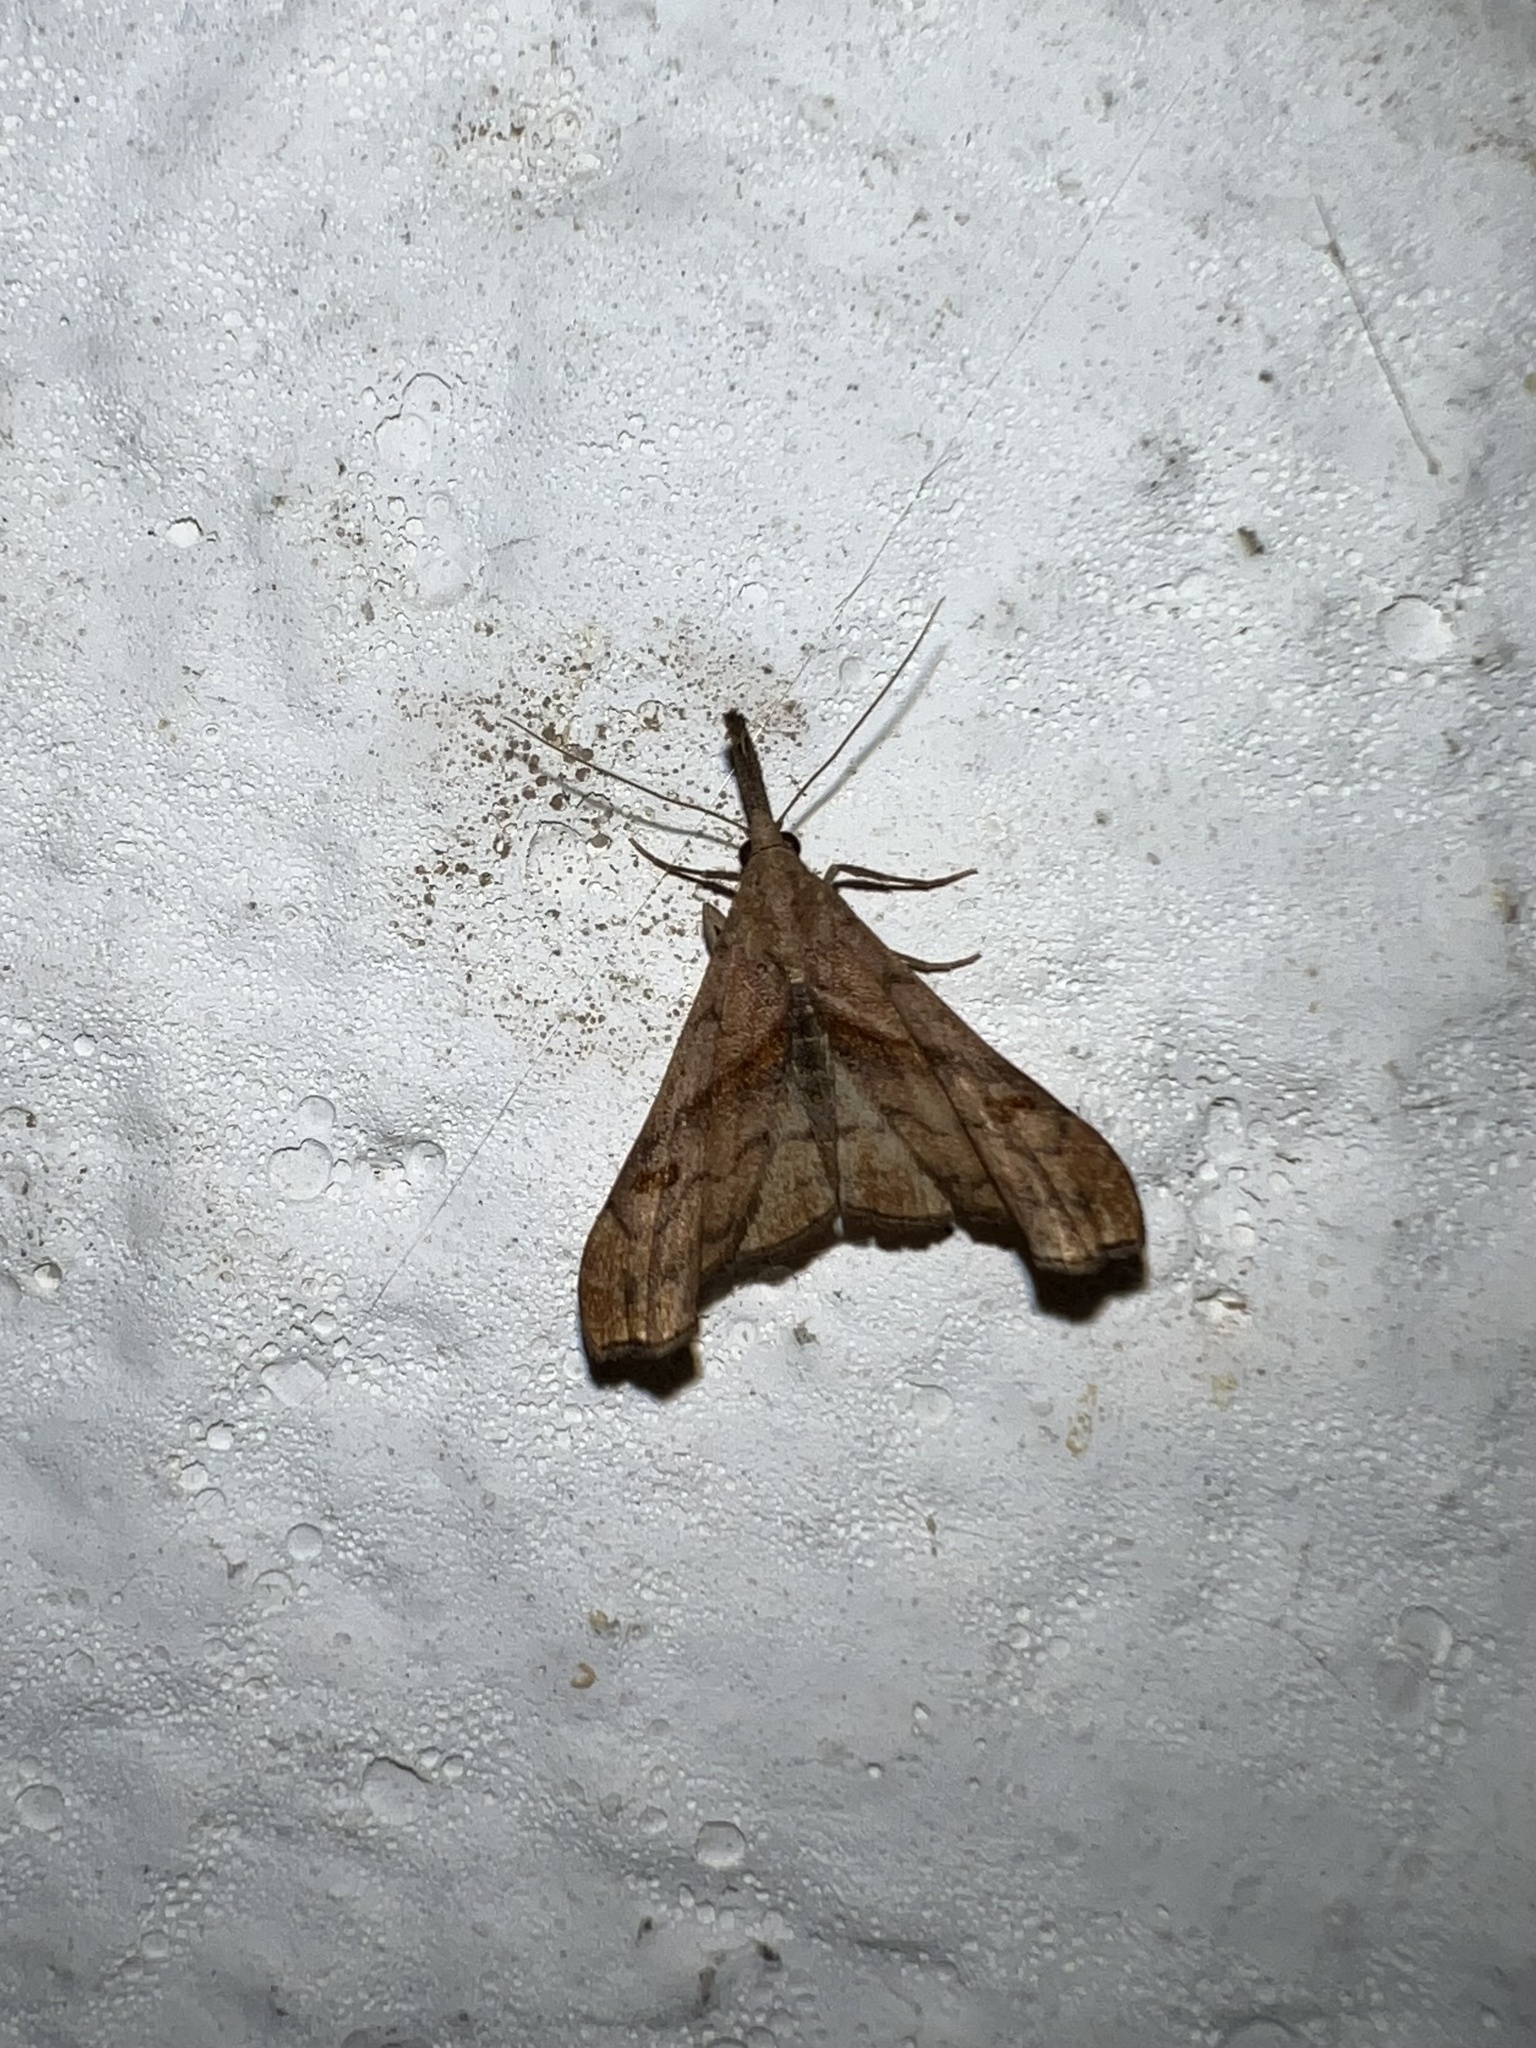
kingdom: Animalia
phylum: Arthropoda
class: Insecta
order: Lepidoptera
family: Erebidae
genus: Palthis
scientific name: Palthis angulalis
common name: Dark-spotted palthis moth
